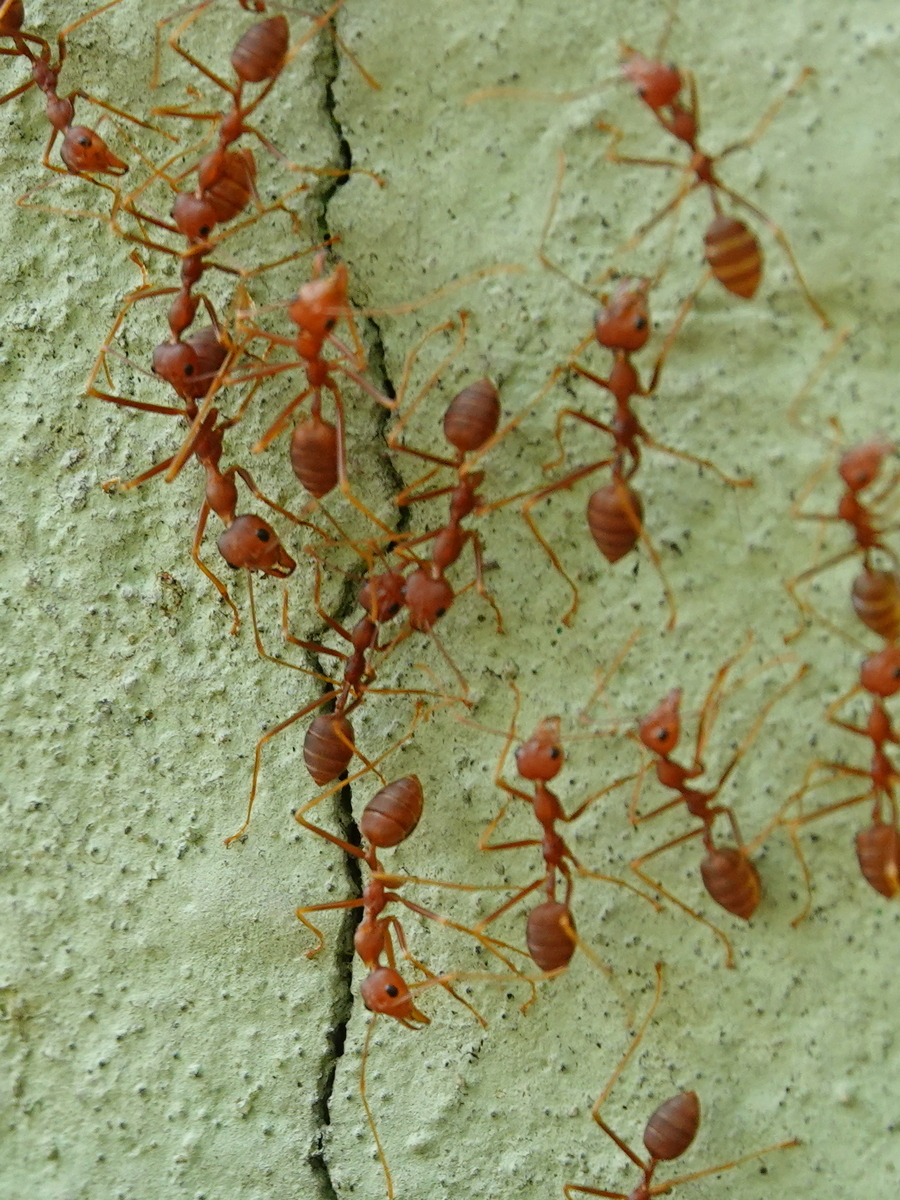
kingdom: Animalia
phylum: Arthropoda
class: Insecta
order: Hymenoptera
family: Formicidae
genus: Oecophylla
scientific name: Oecophylla smaragdina
